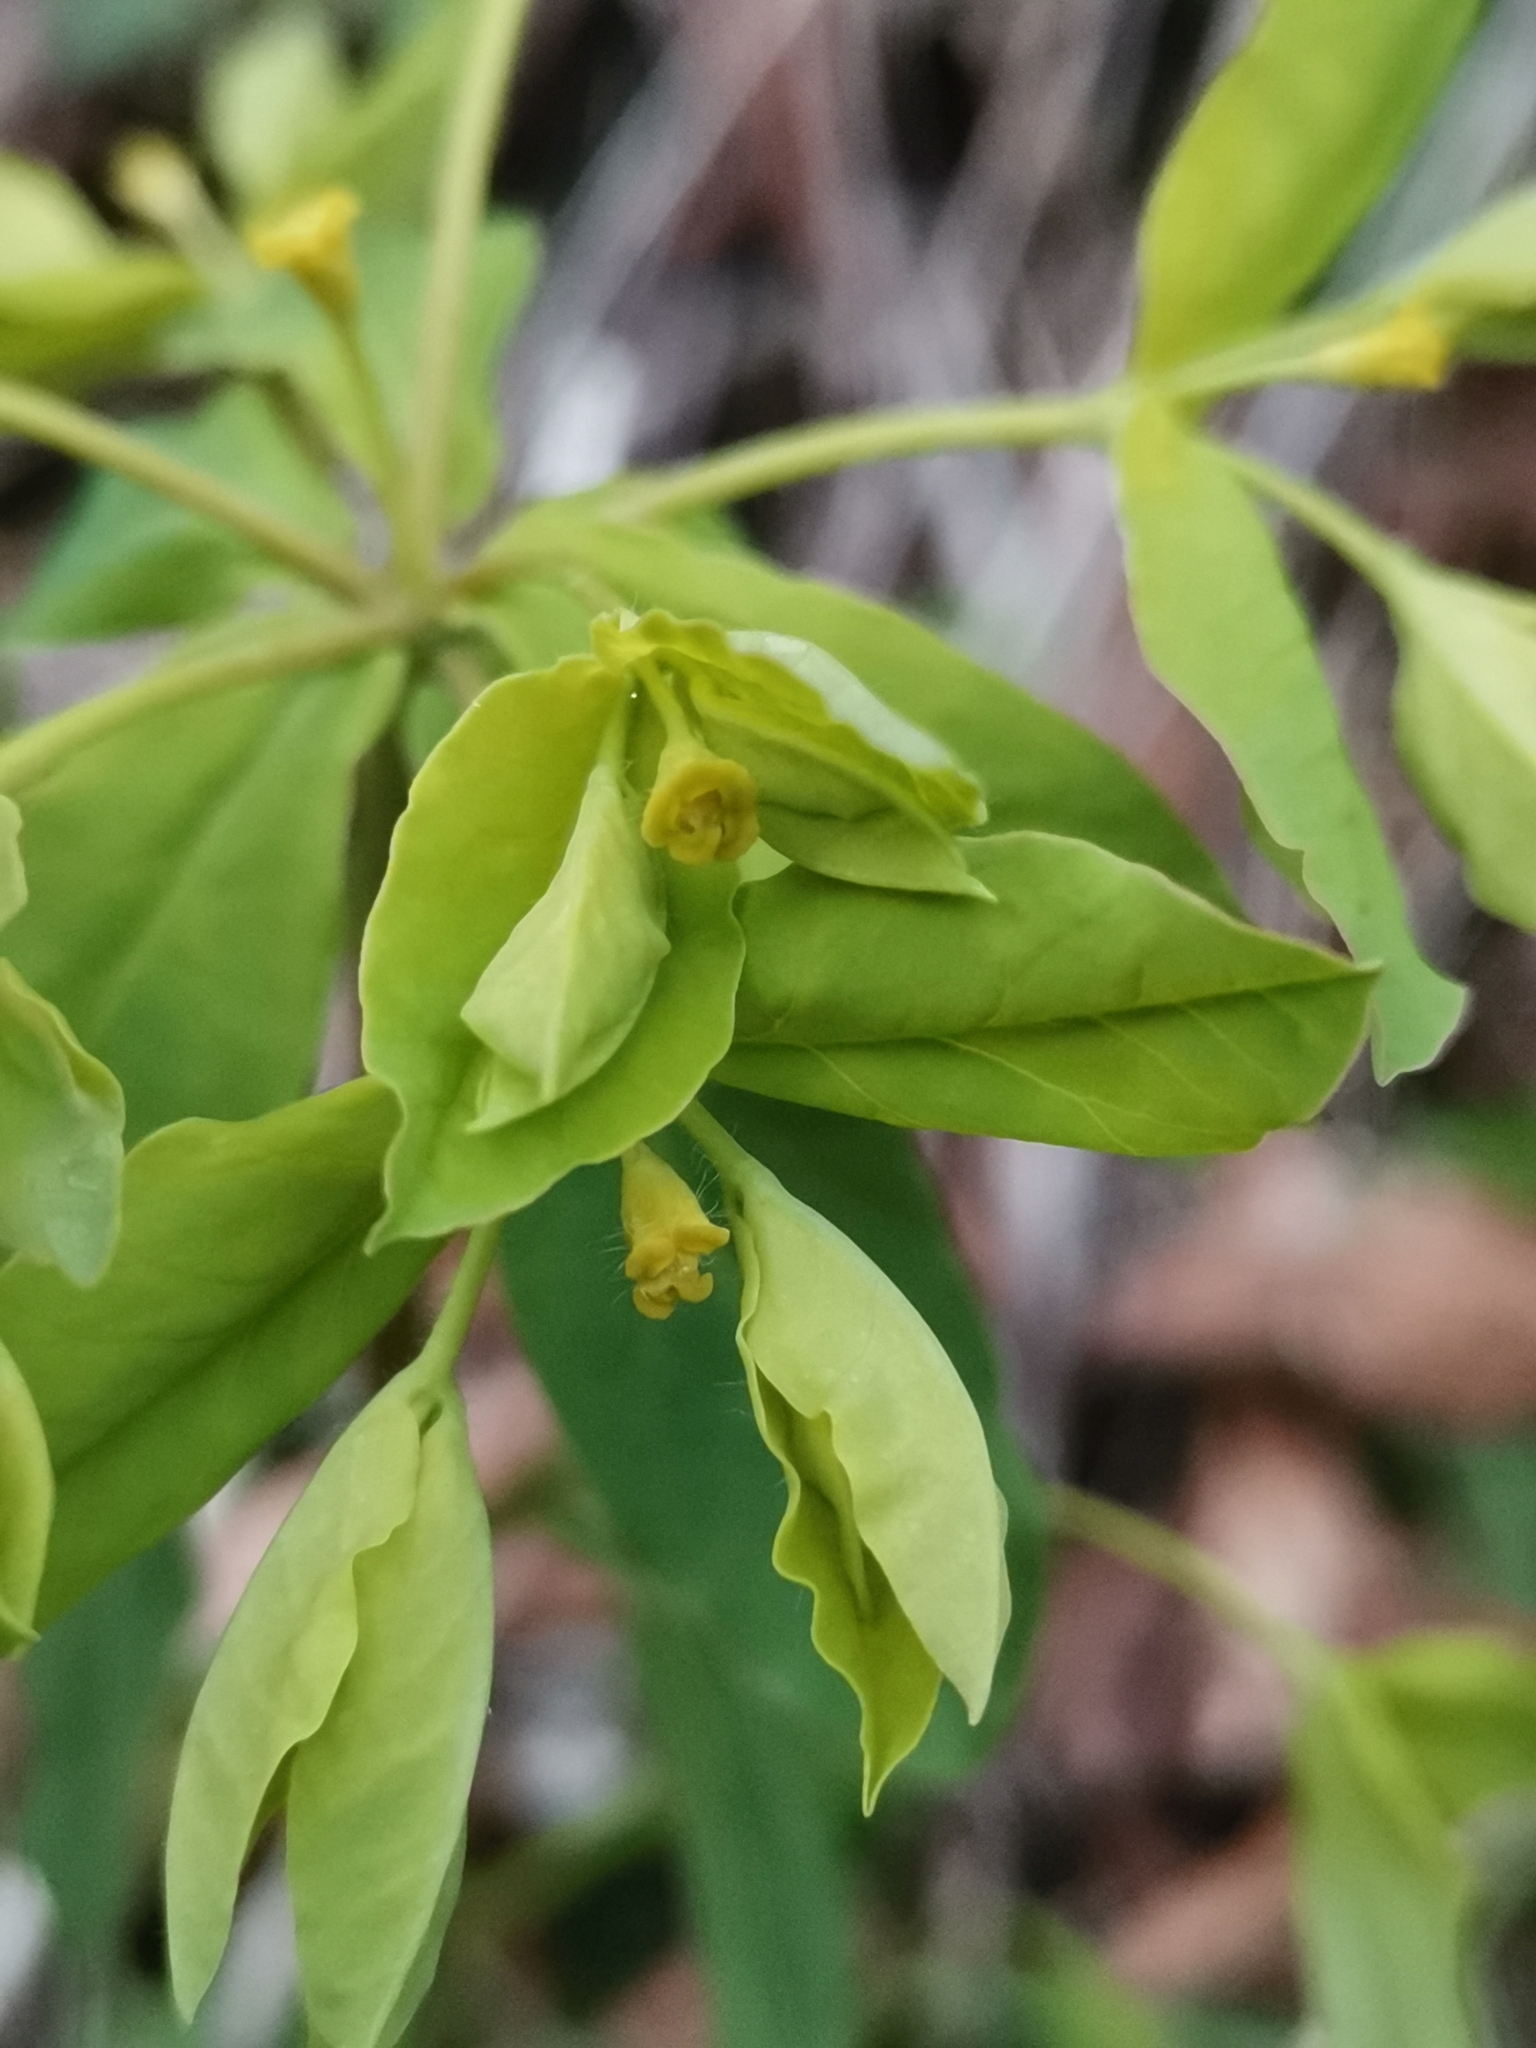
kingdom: Plantae
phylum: Tracheophyta
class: Magnoliopsida
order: Malpighiales
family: Euphorbiaceae
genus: Euphorbia
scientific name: Euphorbia carniolica
